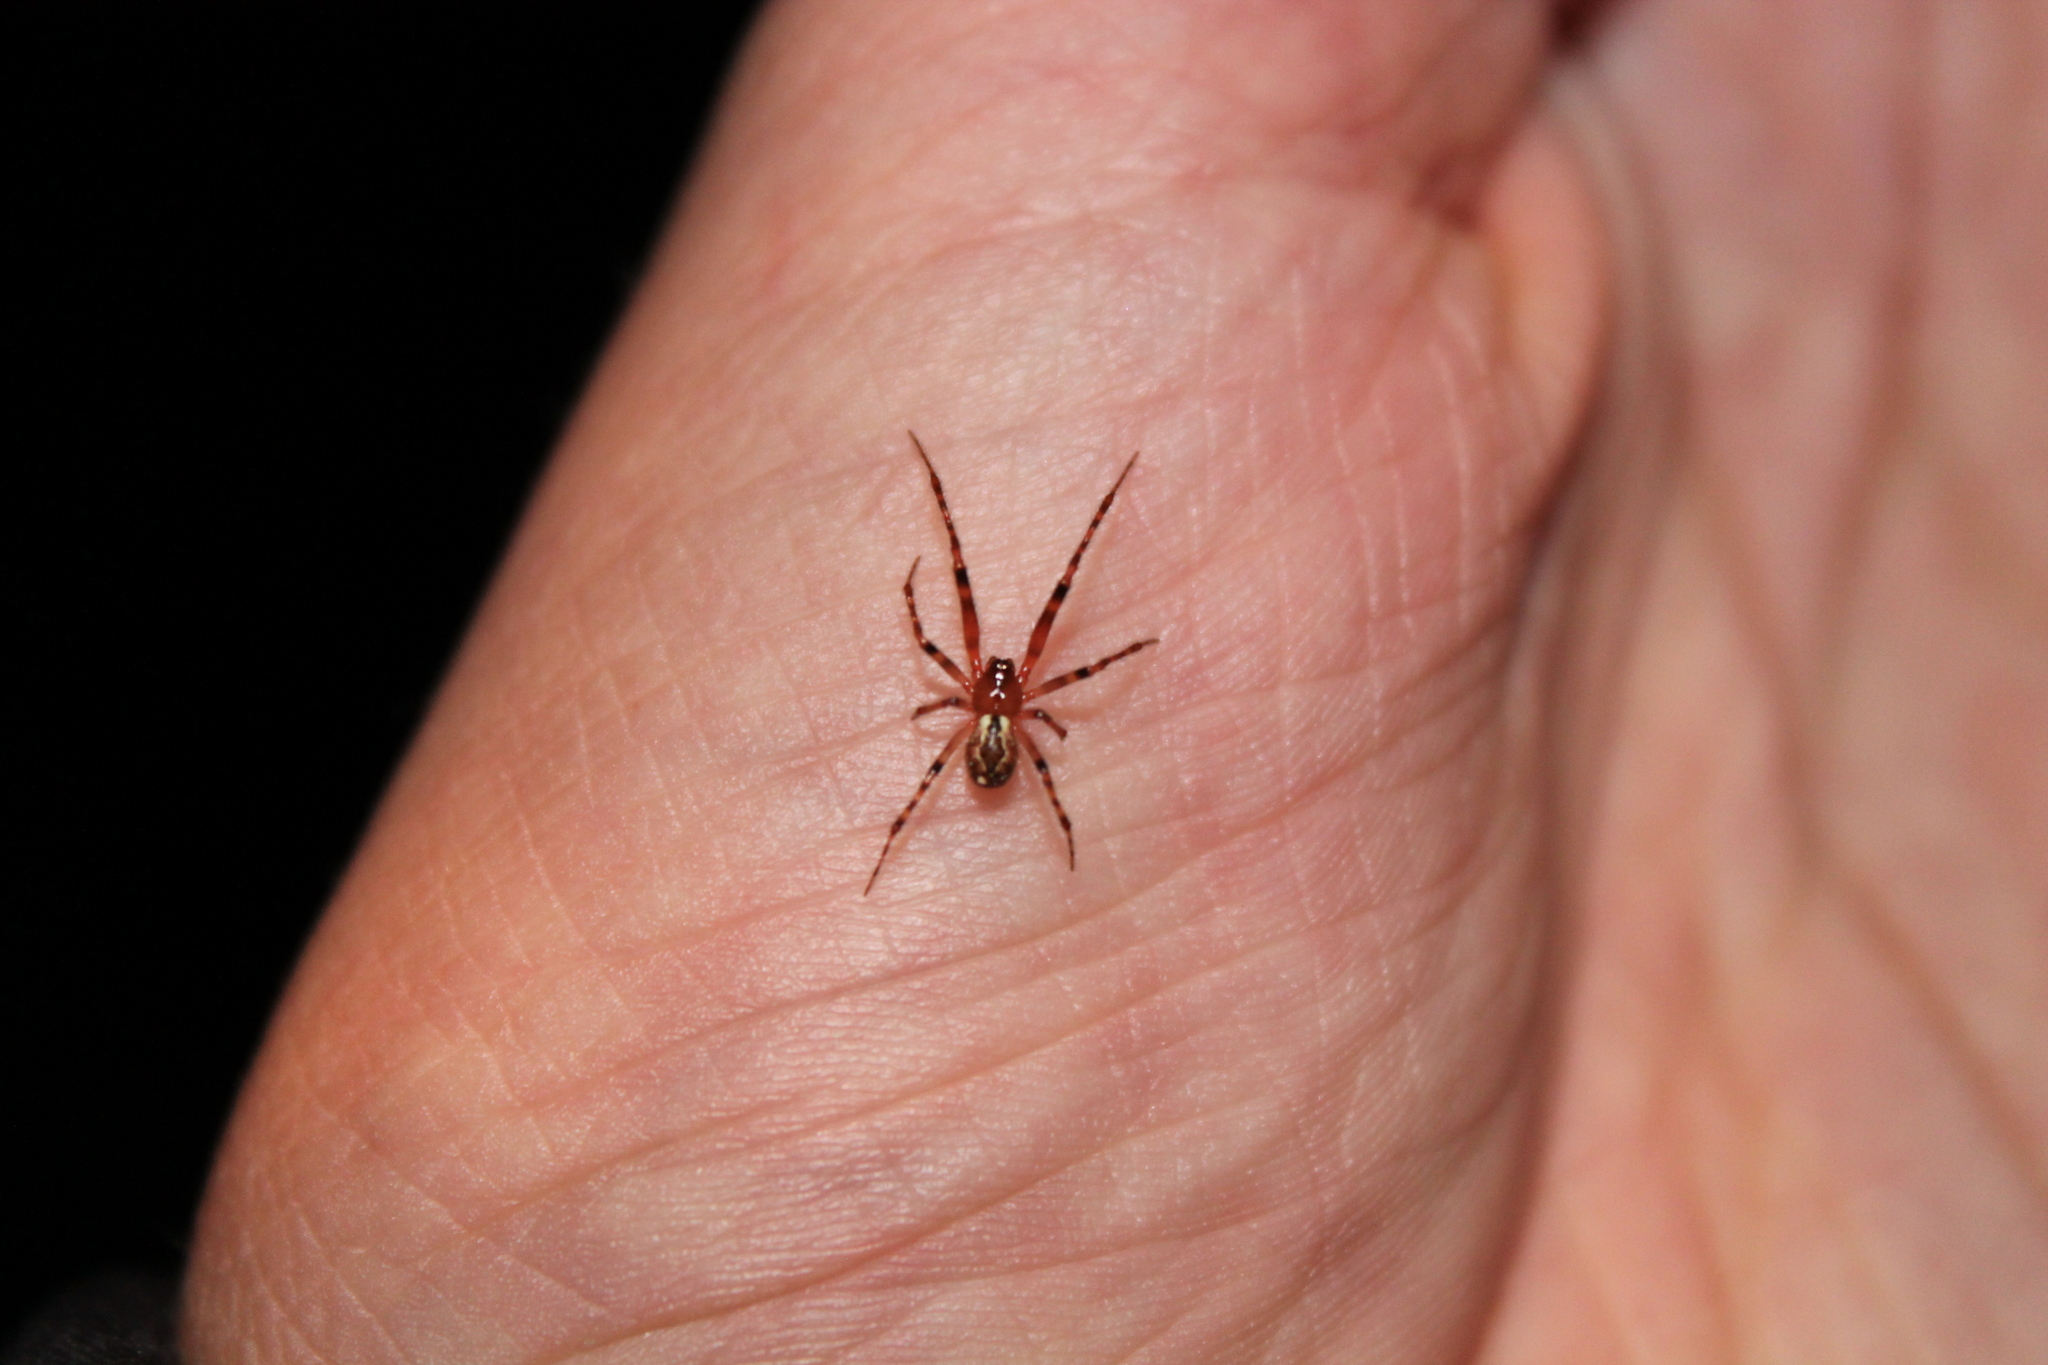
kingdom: Animalia
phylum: Arthropoda
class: Arachnida
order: Araneae
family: Theridiidae
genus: Cryptachaea
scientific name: Cryptachaea veruculata
